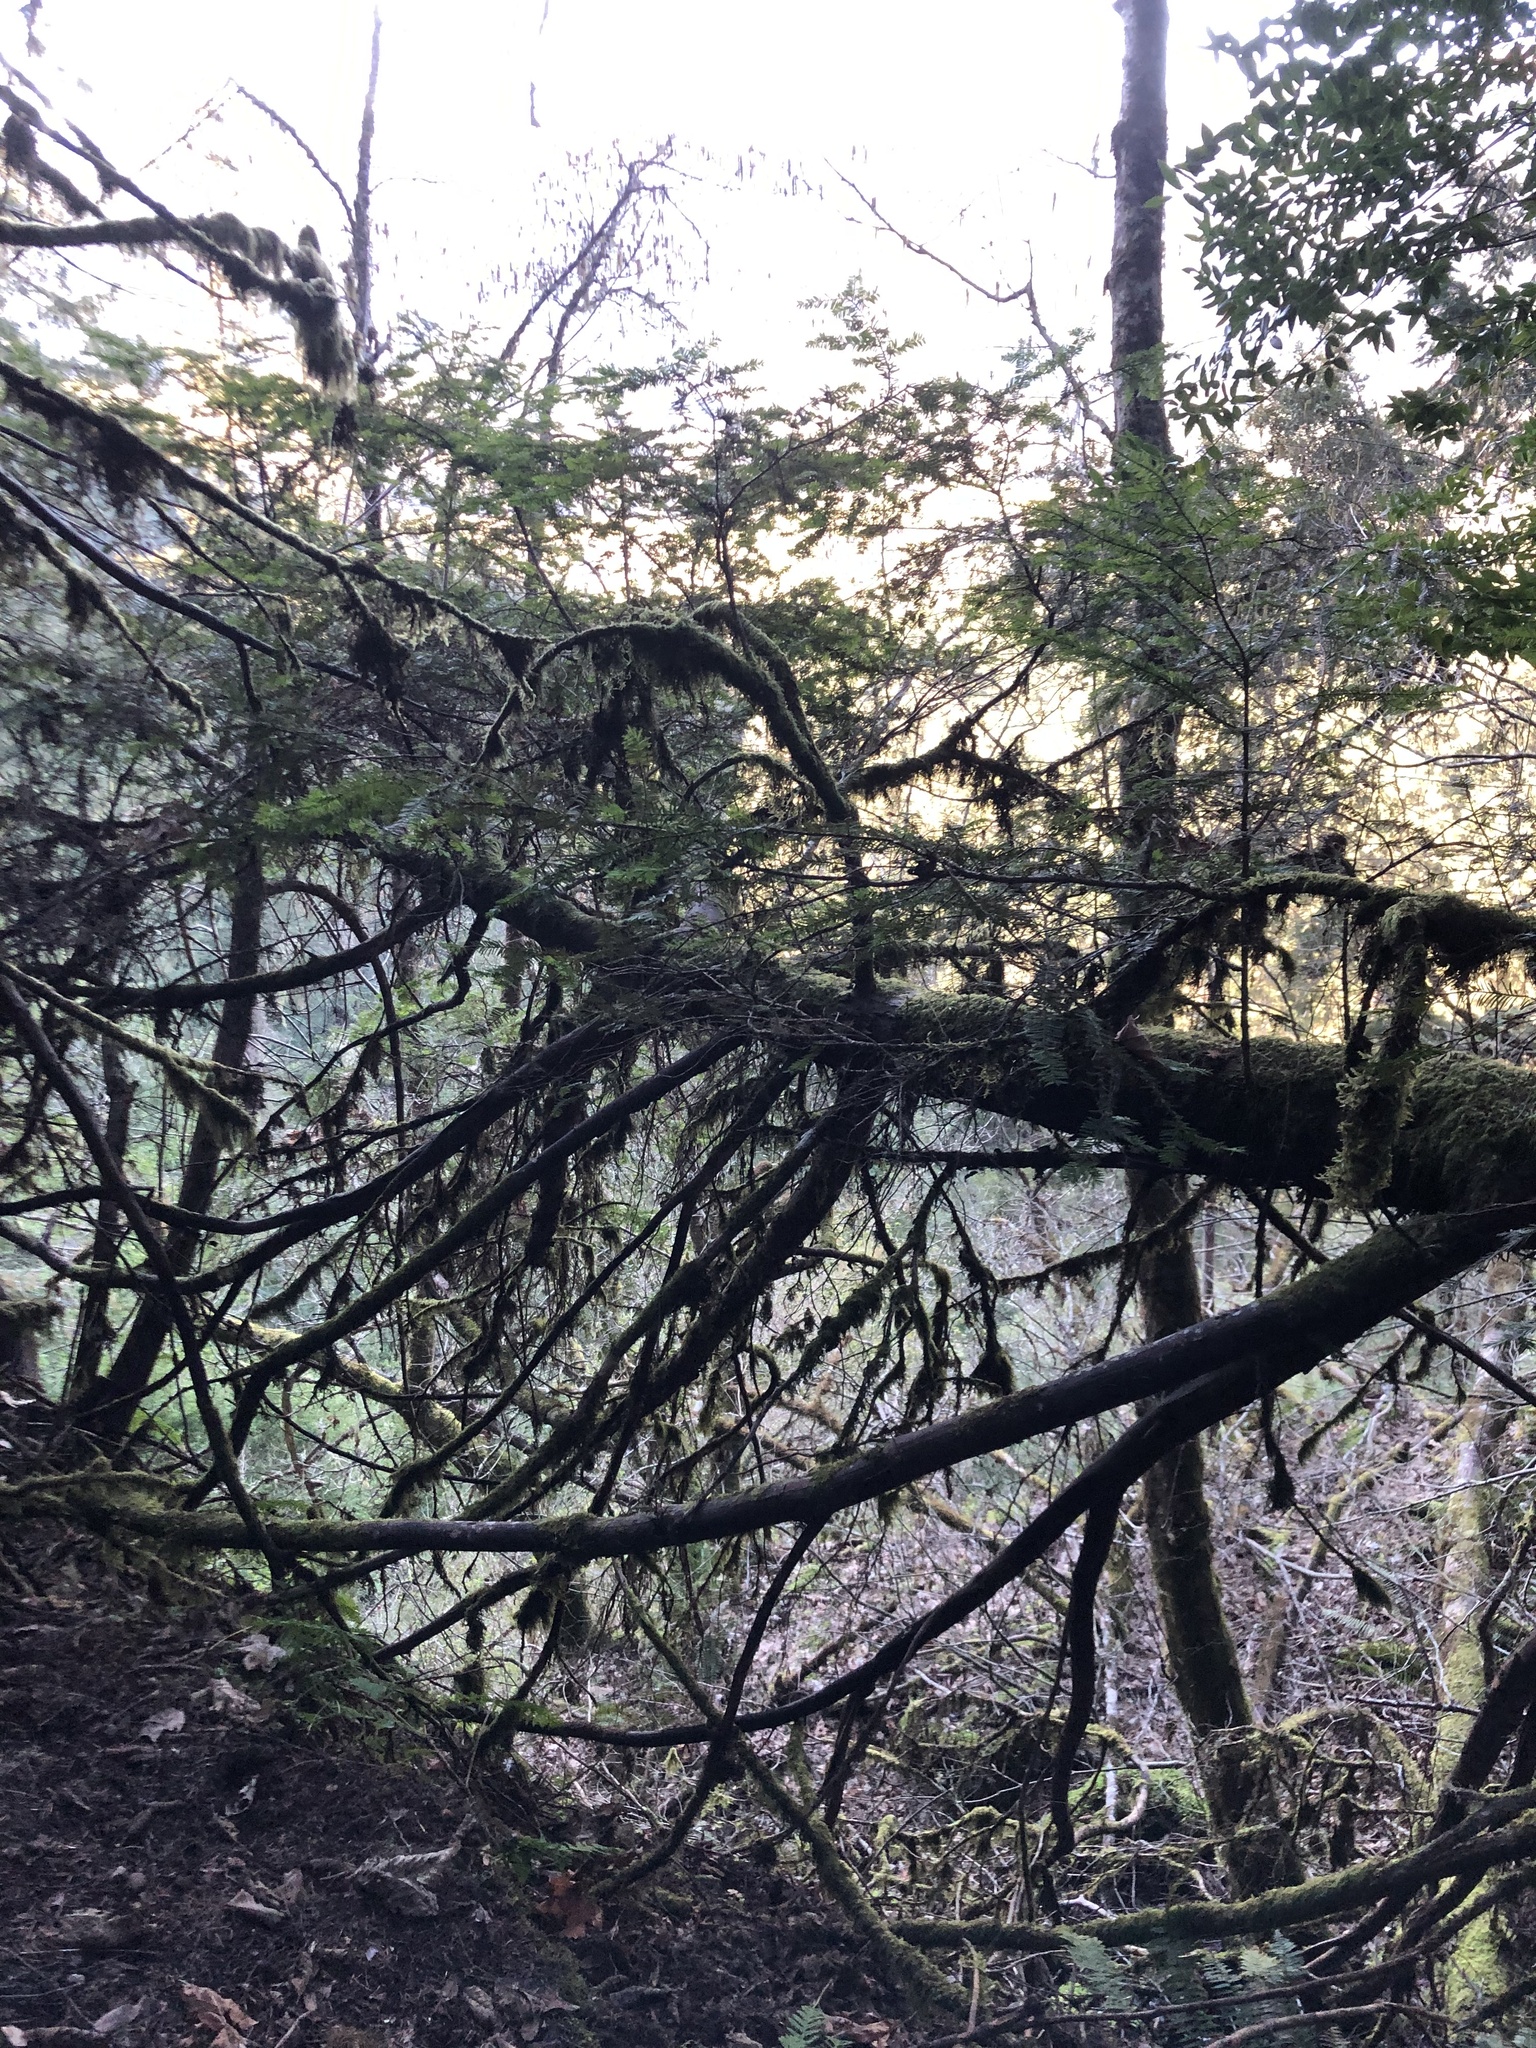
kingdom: Plantae
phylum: Tracheophyta
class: Pinopsida
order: Pinales
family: Taxaceae
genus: Taxus
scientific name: Taxus brevifolia
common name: Pacific yew
